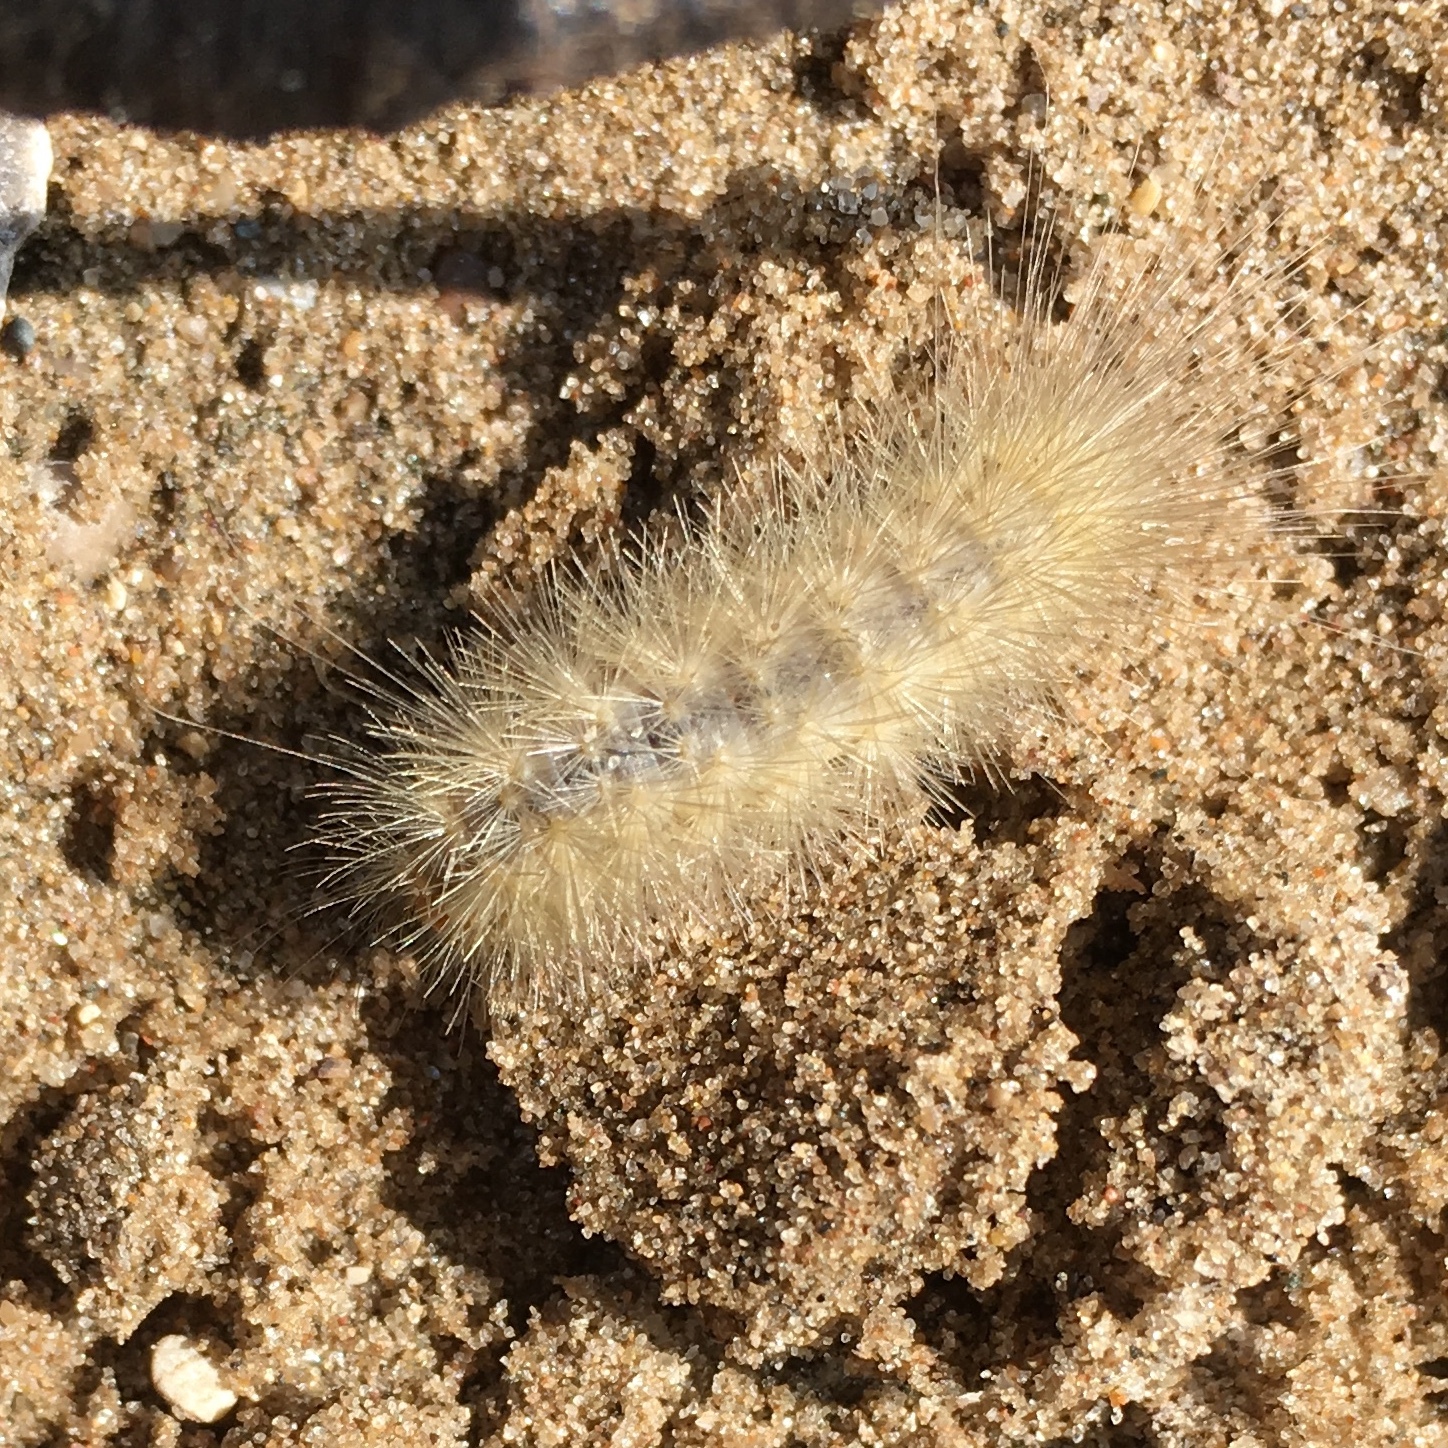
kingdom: Animalia
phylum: Arthropoda
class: Insecta
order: Lepidoptera
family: Erebidae
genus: Spilosoma
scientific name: Spilosoma virginica
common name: Virginia tiger moth
